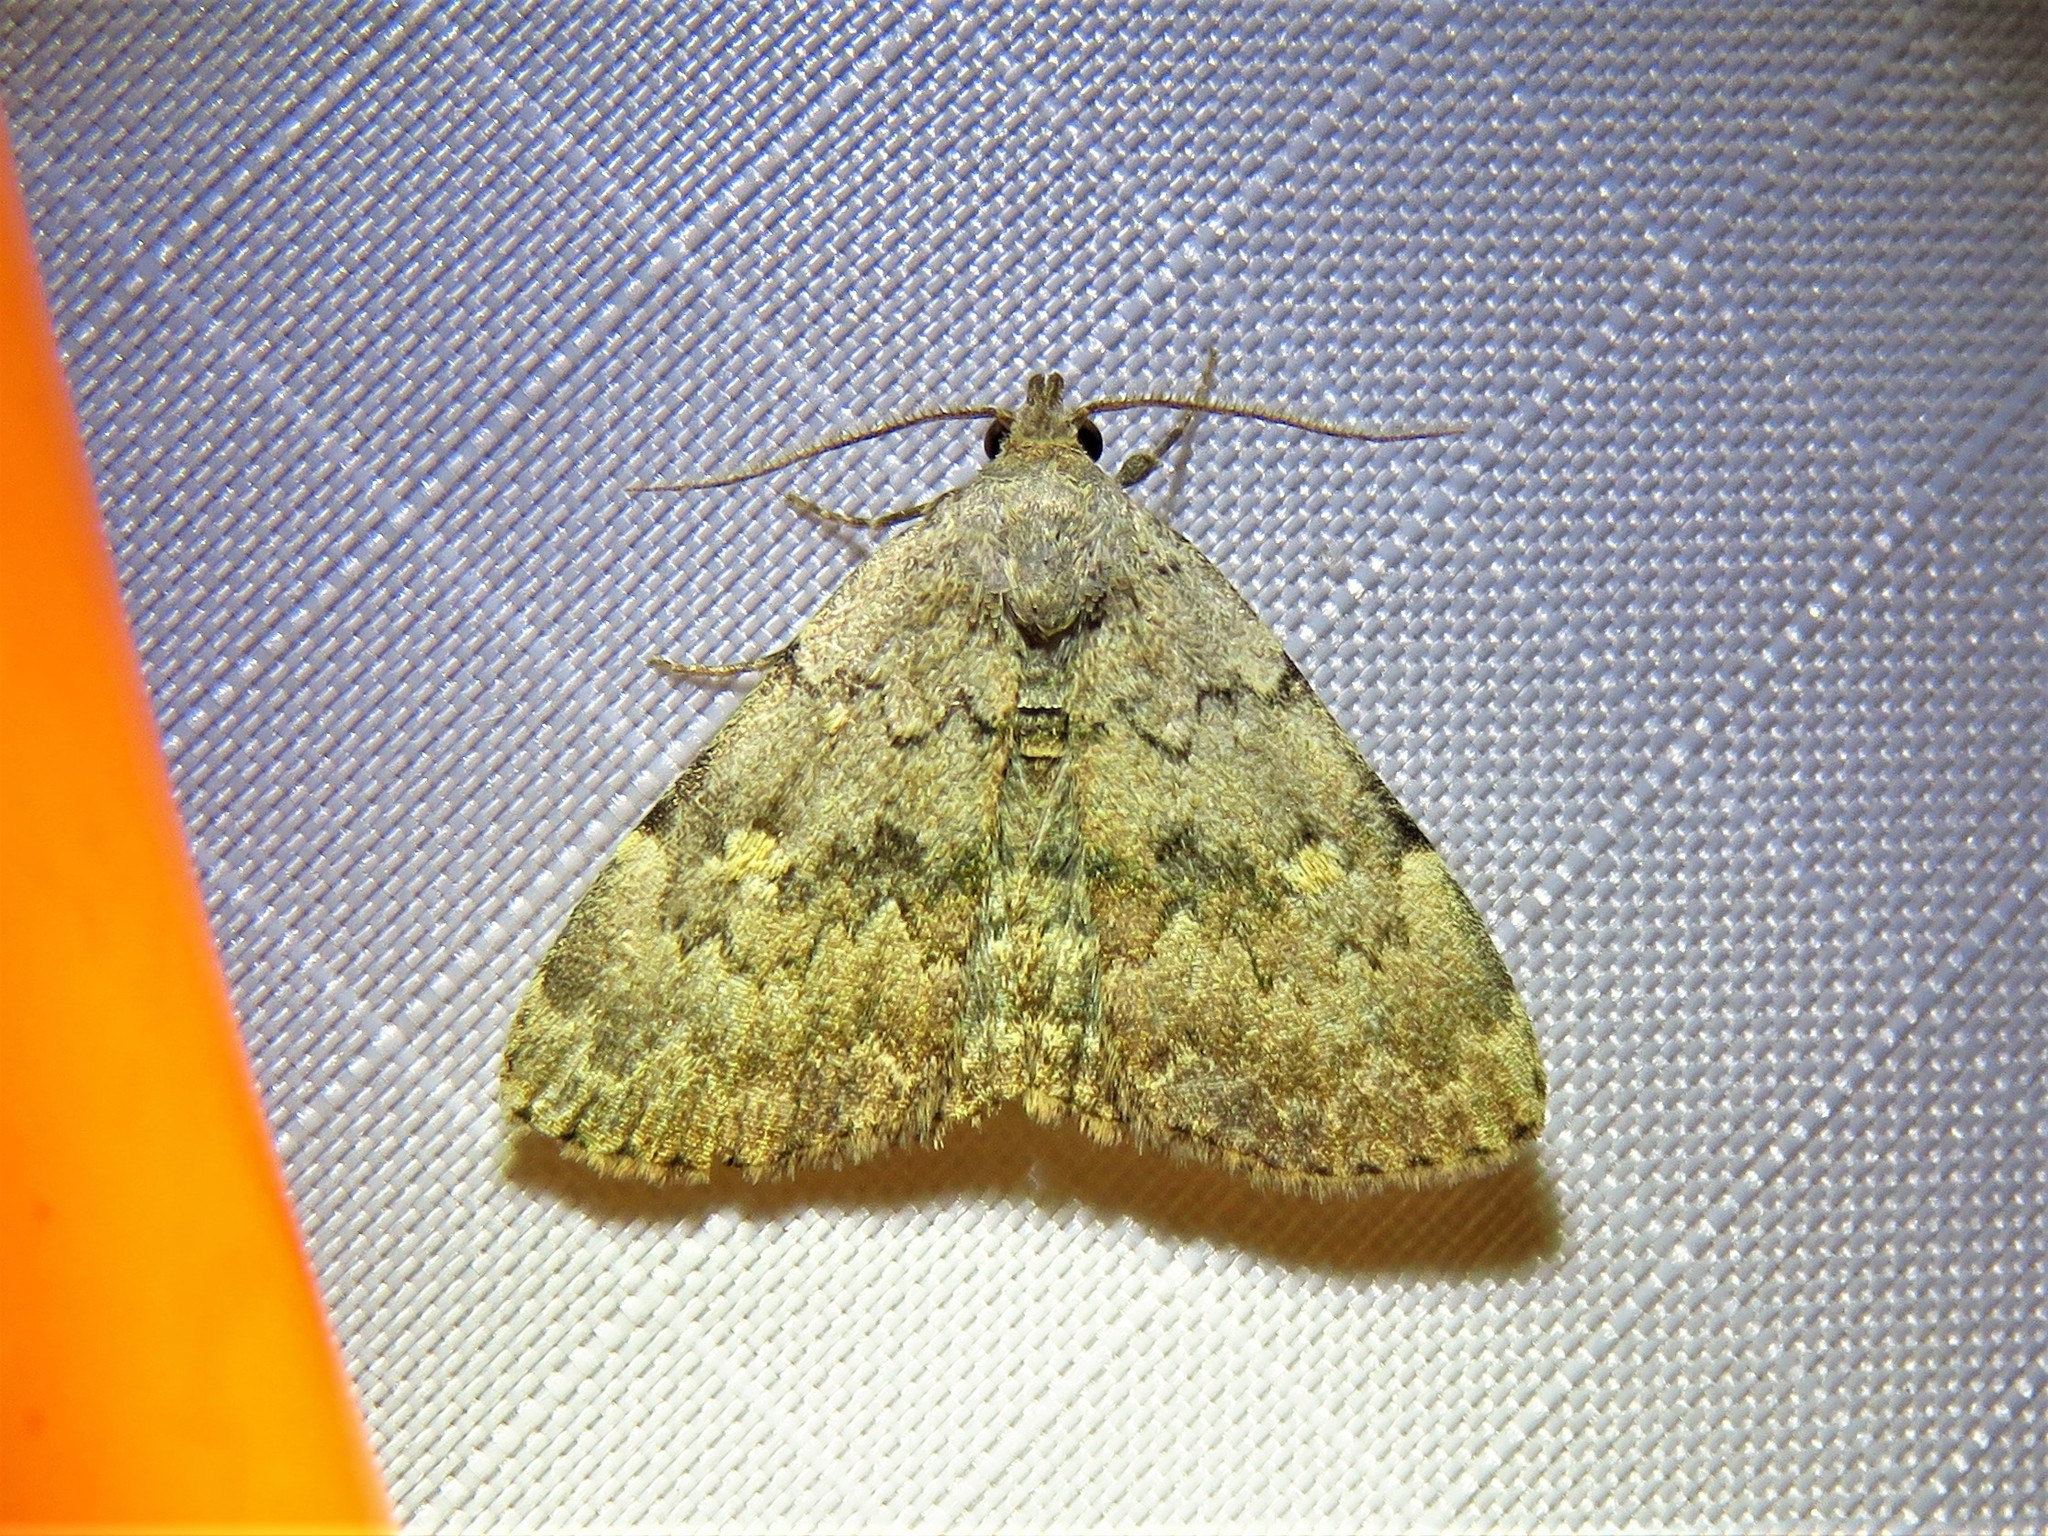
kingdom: Animalia
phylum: Arthropoda
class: Insecta
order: Lepidoptera
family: Erebidae
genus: Idia
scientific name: Idia aemula
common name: Common idia moth
